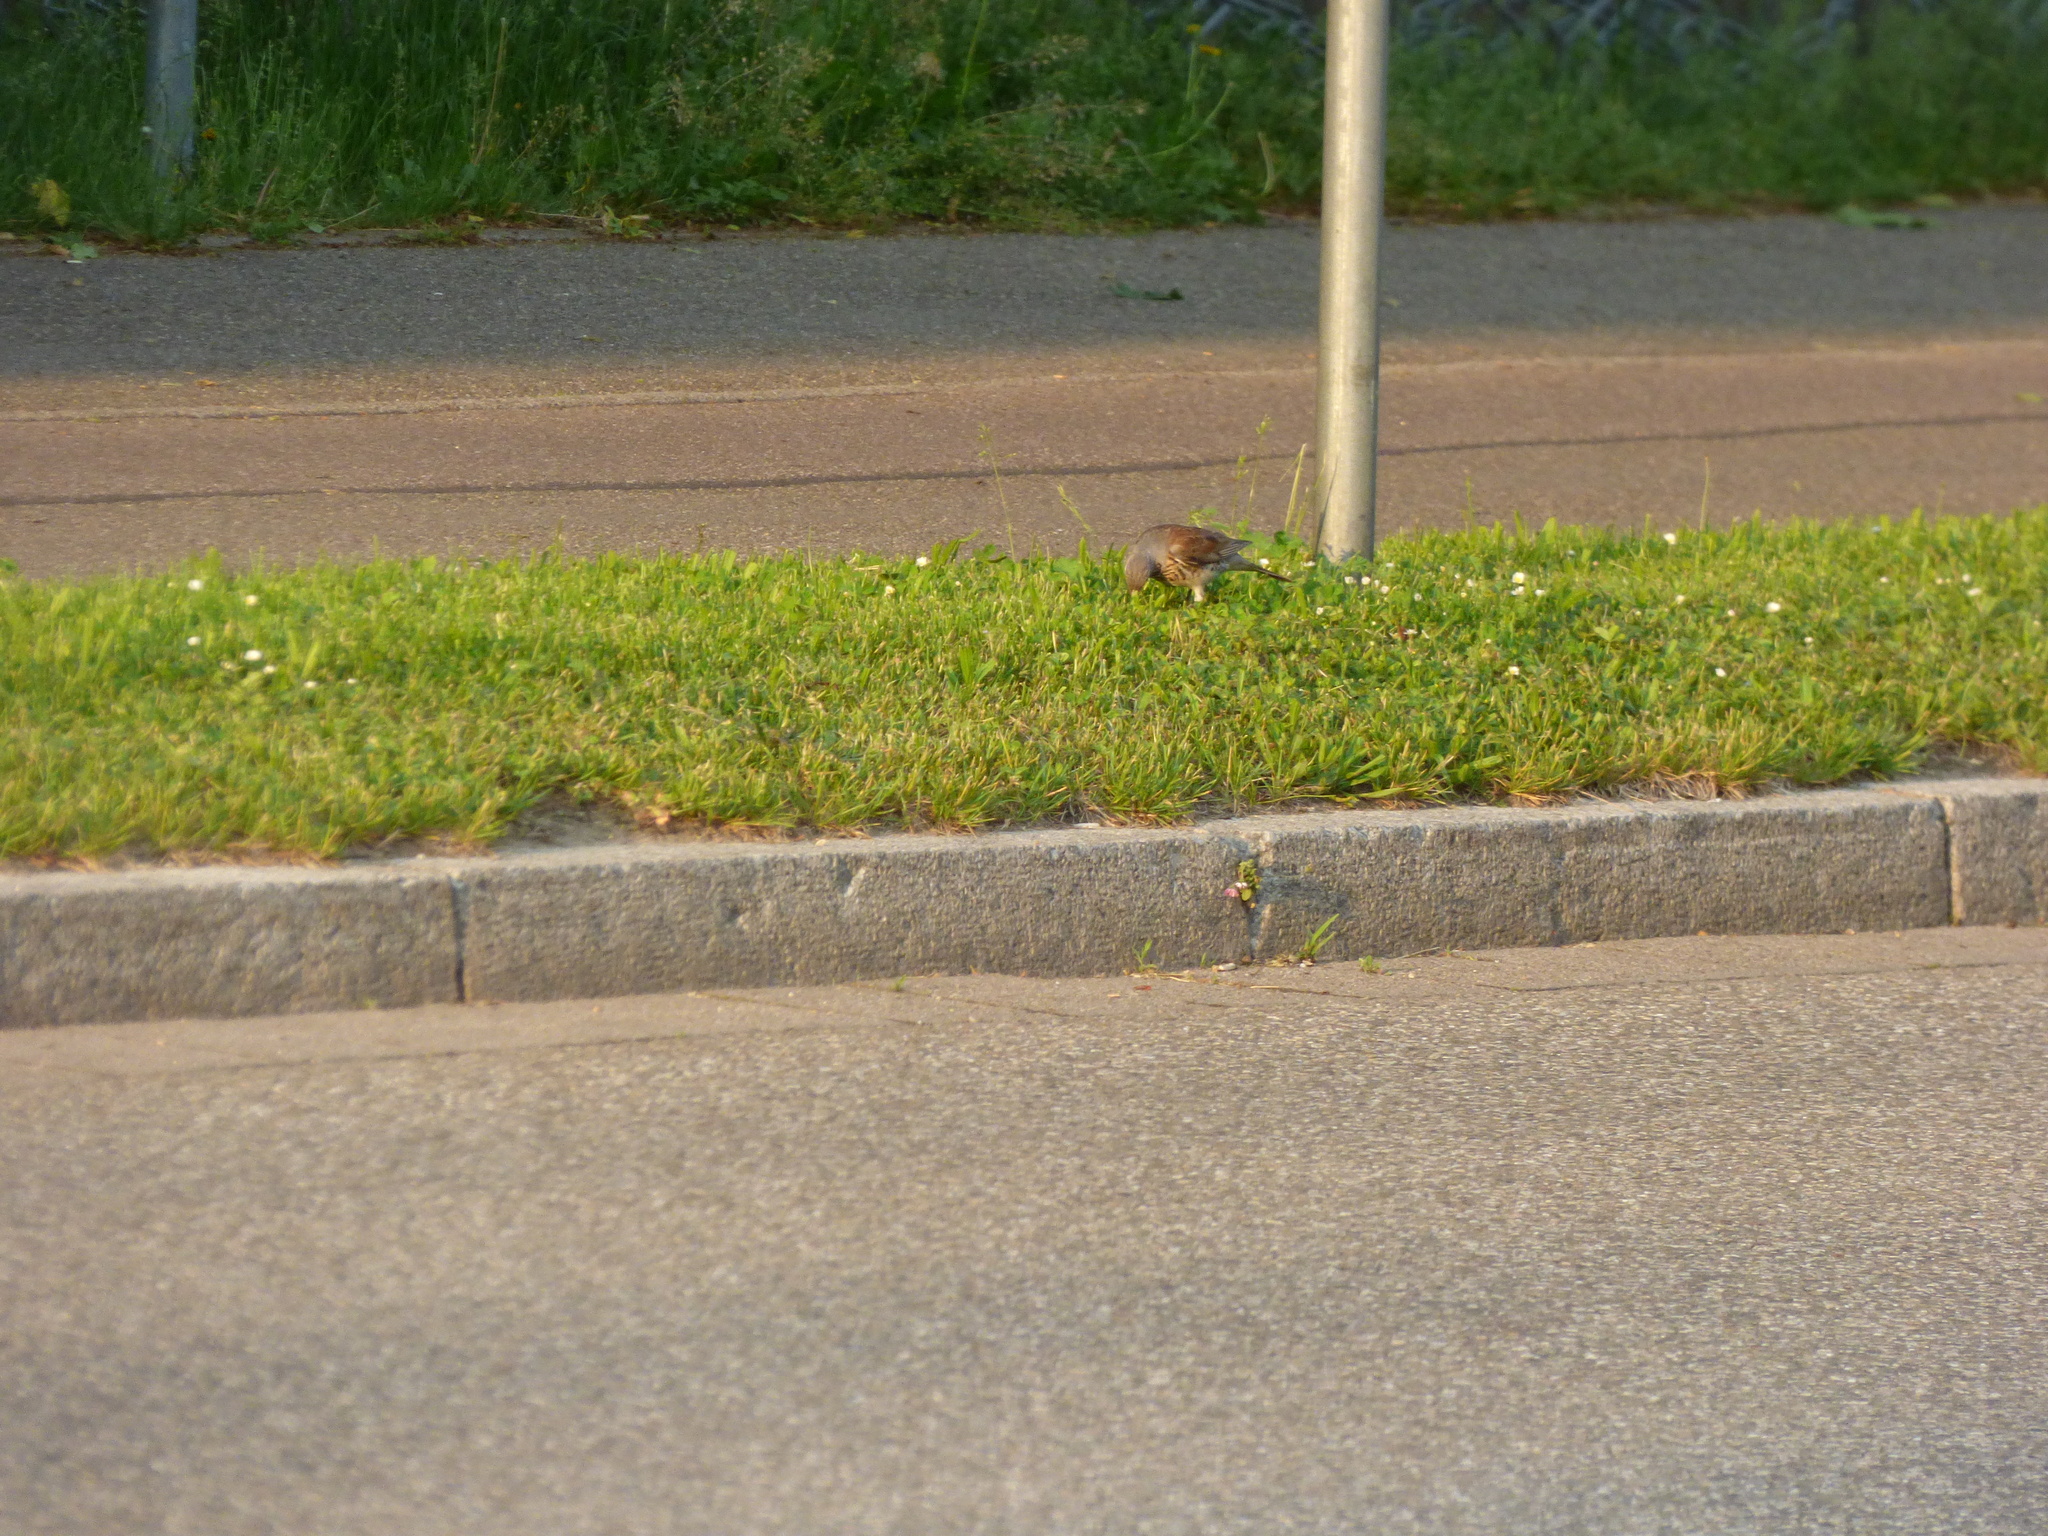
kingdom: Animalia
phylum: Chordata
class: Aves
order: Passeriformes
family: Turdidae
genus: Turdus
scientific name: Turdus pilaris
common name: Fieldfare
